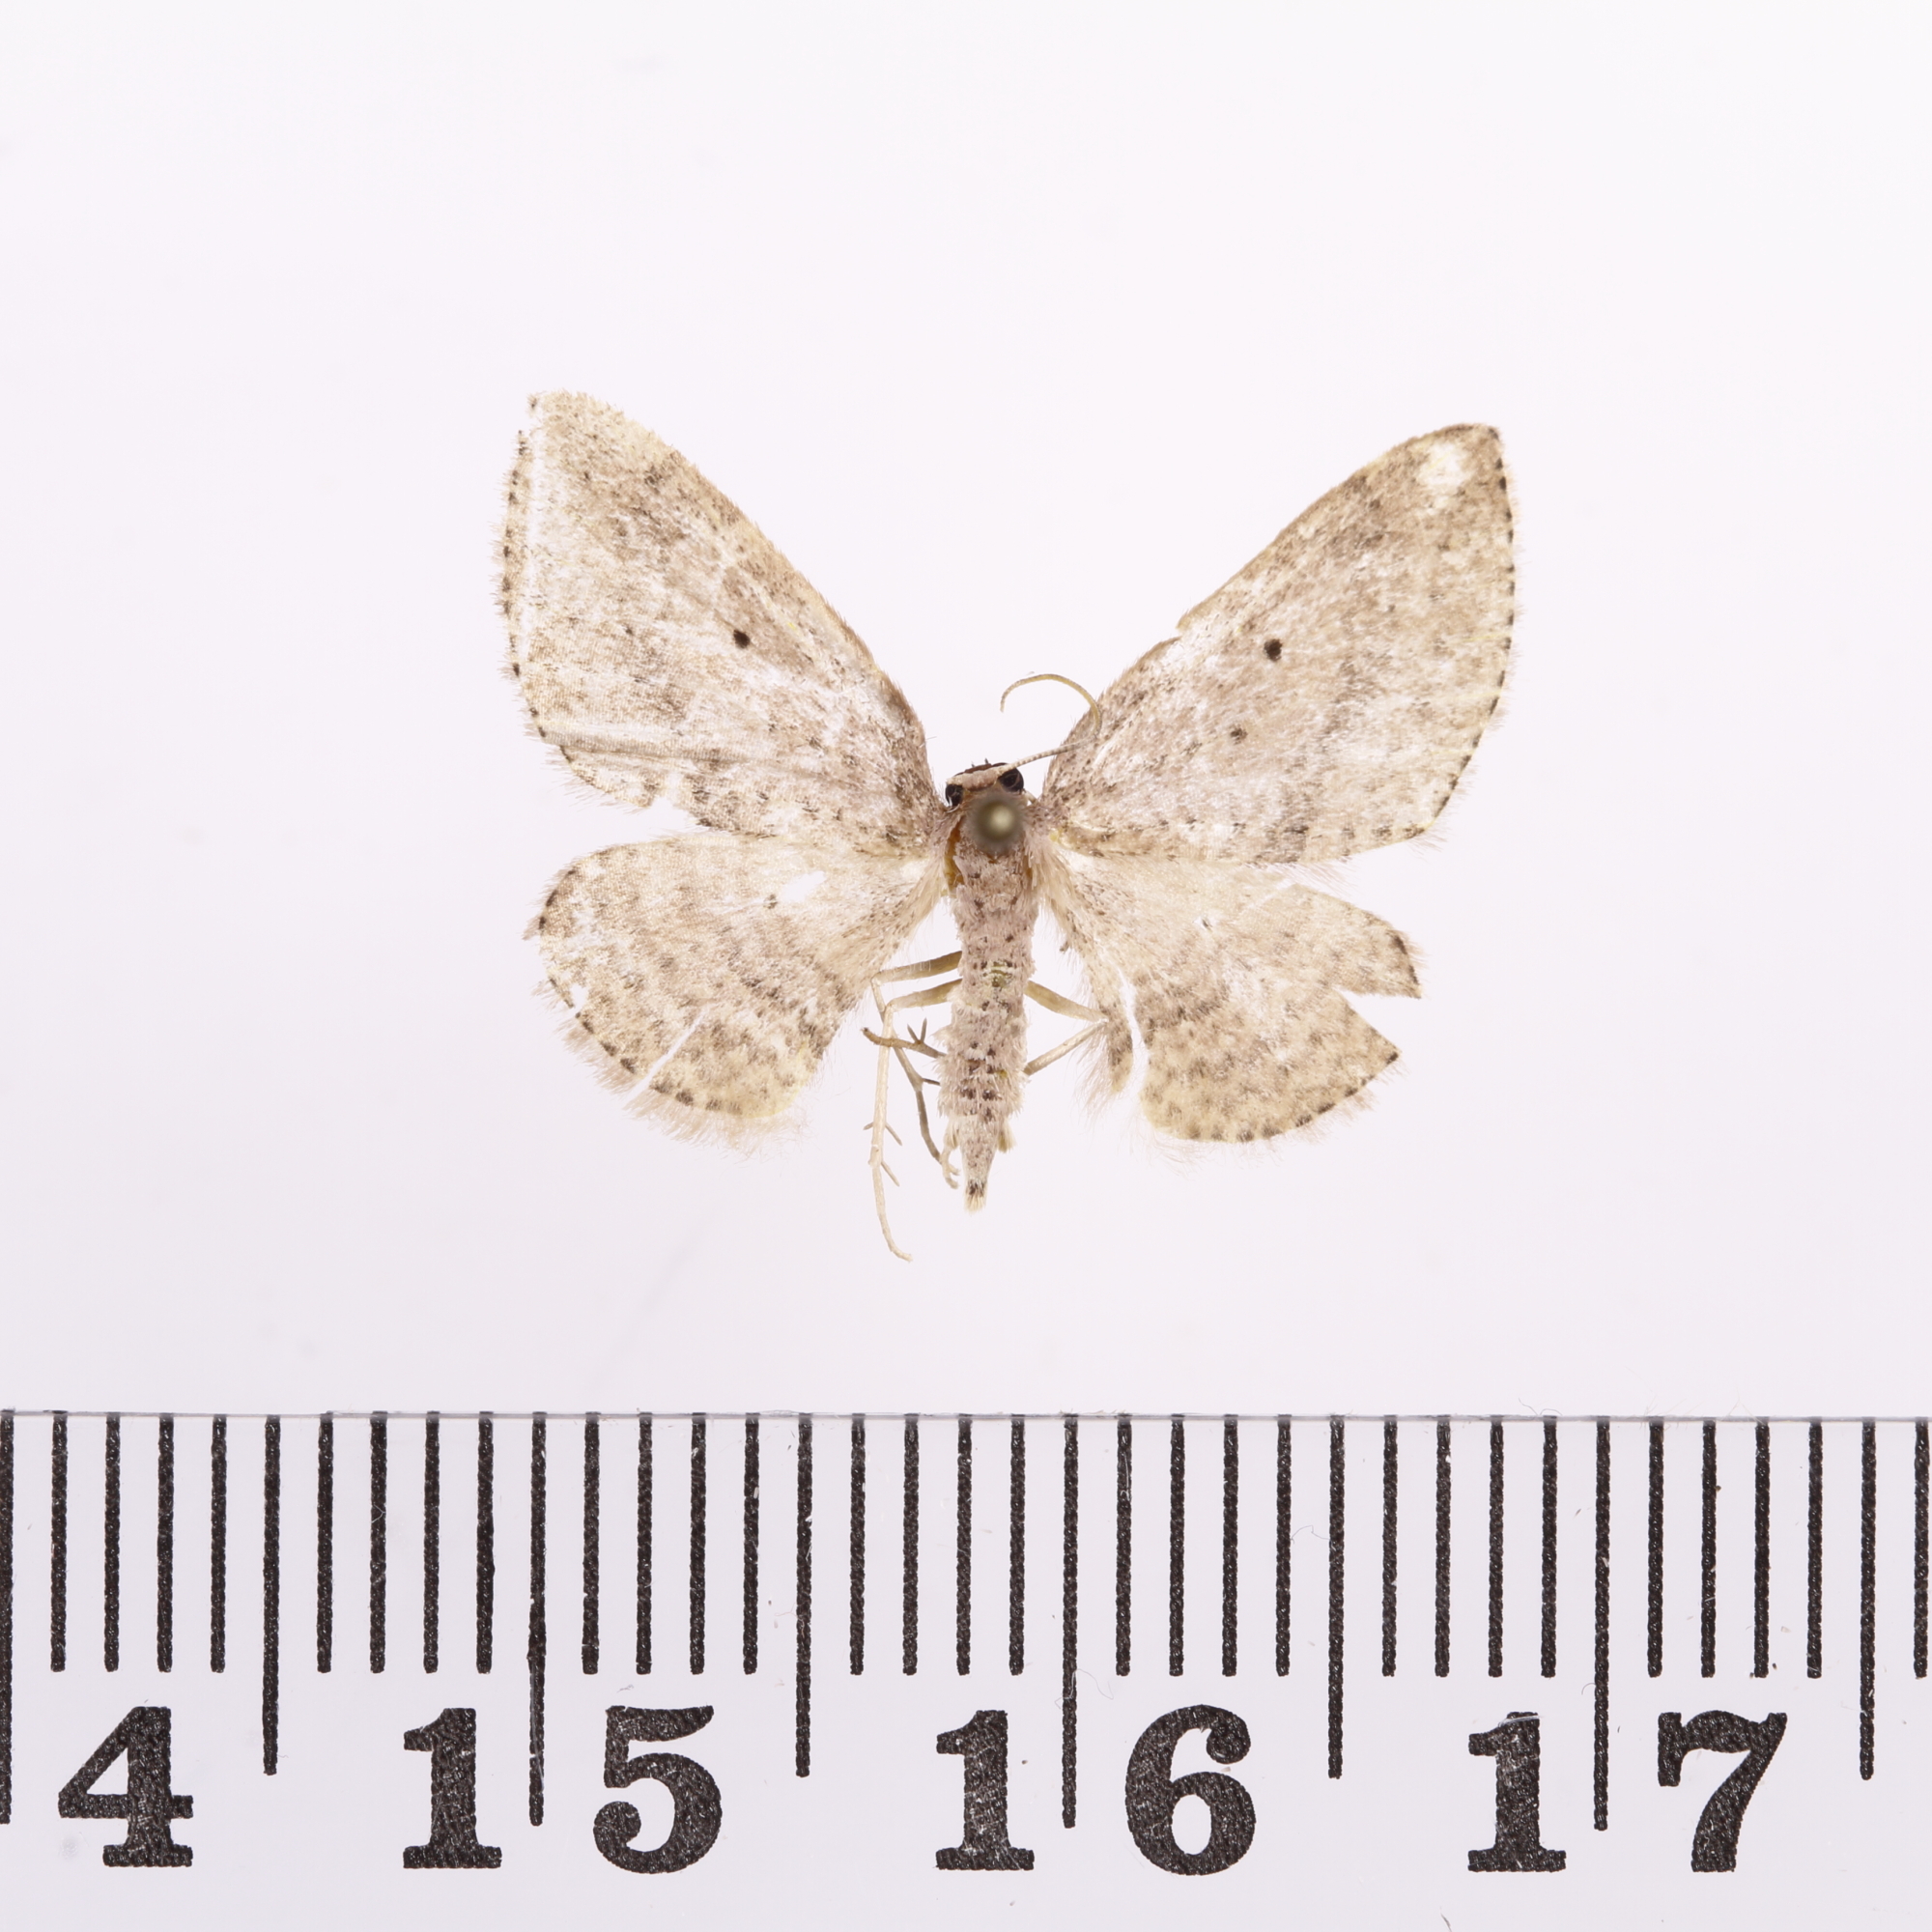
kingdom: Animalia
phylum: Arthropoda
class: Insecta
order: Lepidoptera
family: Geometridae
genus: Poecilasthena
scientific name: Poecilasthena schistaria
